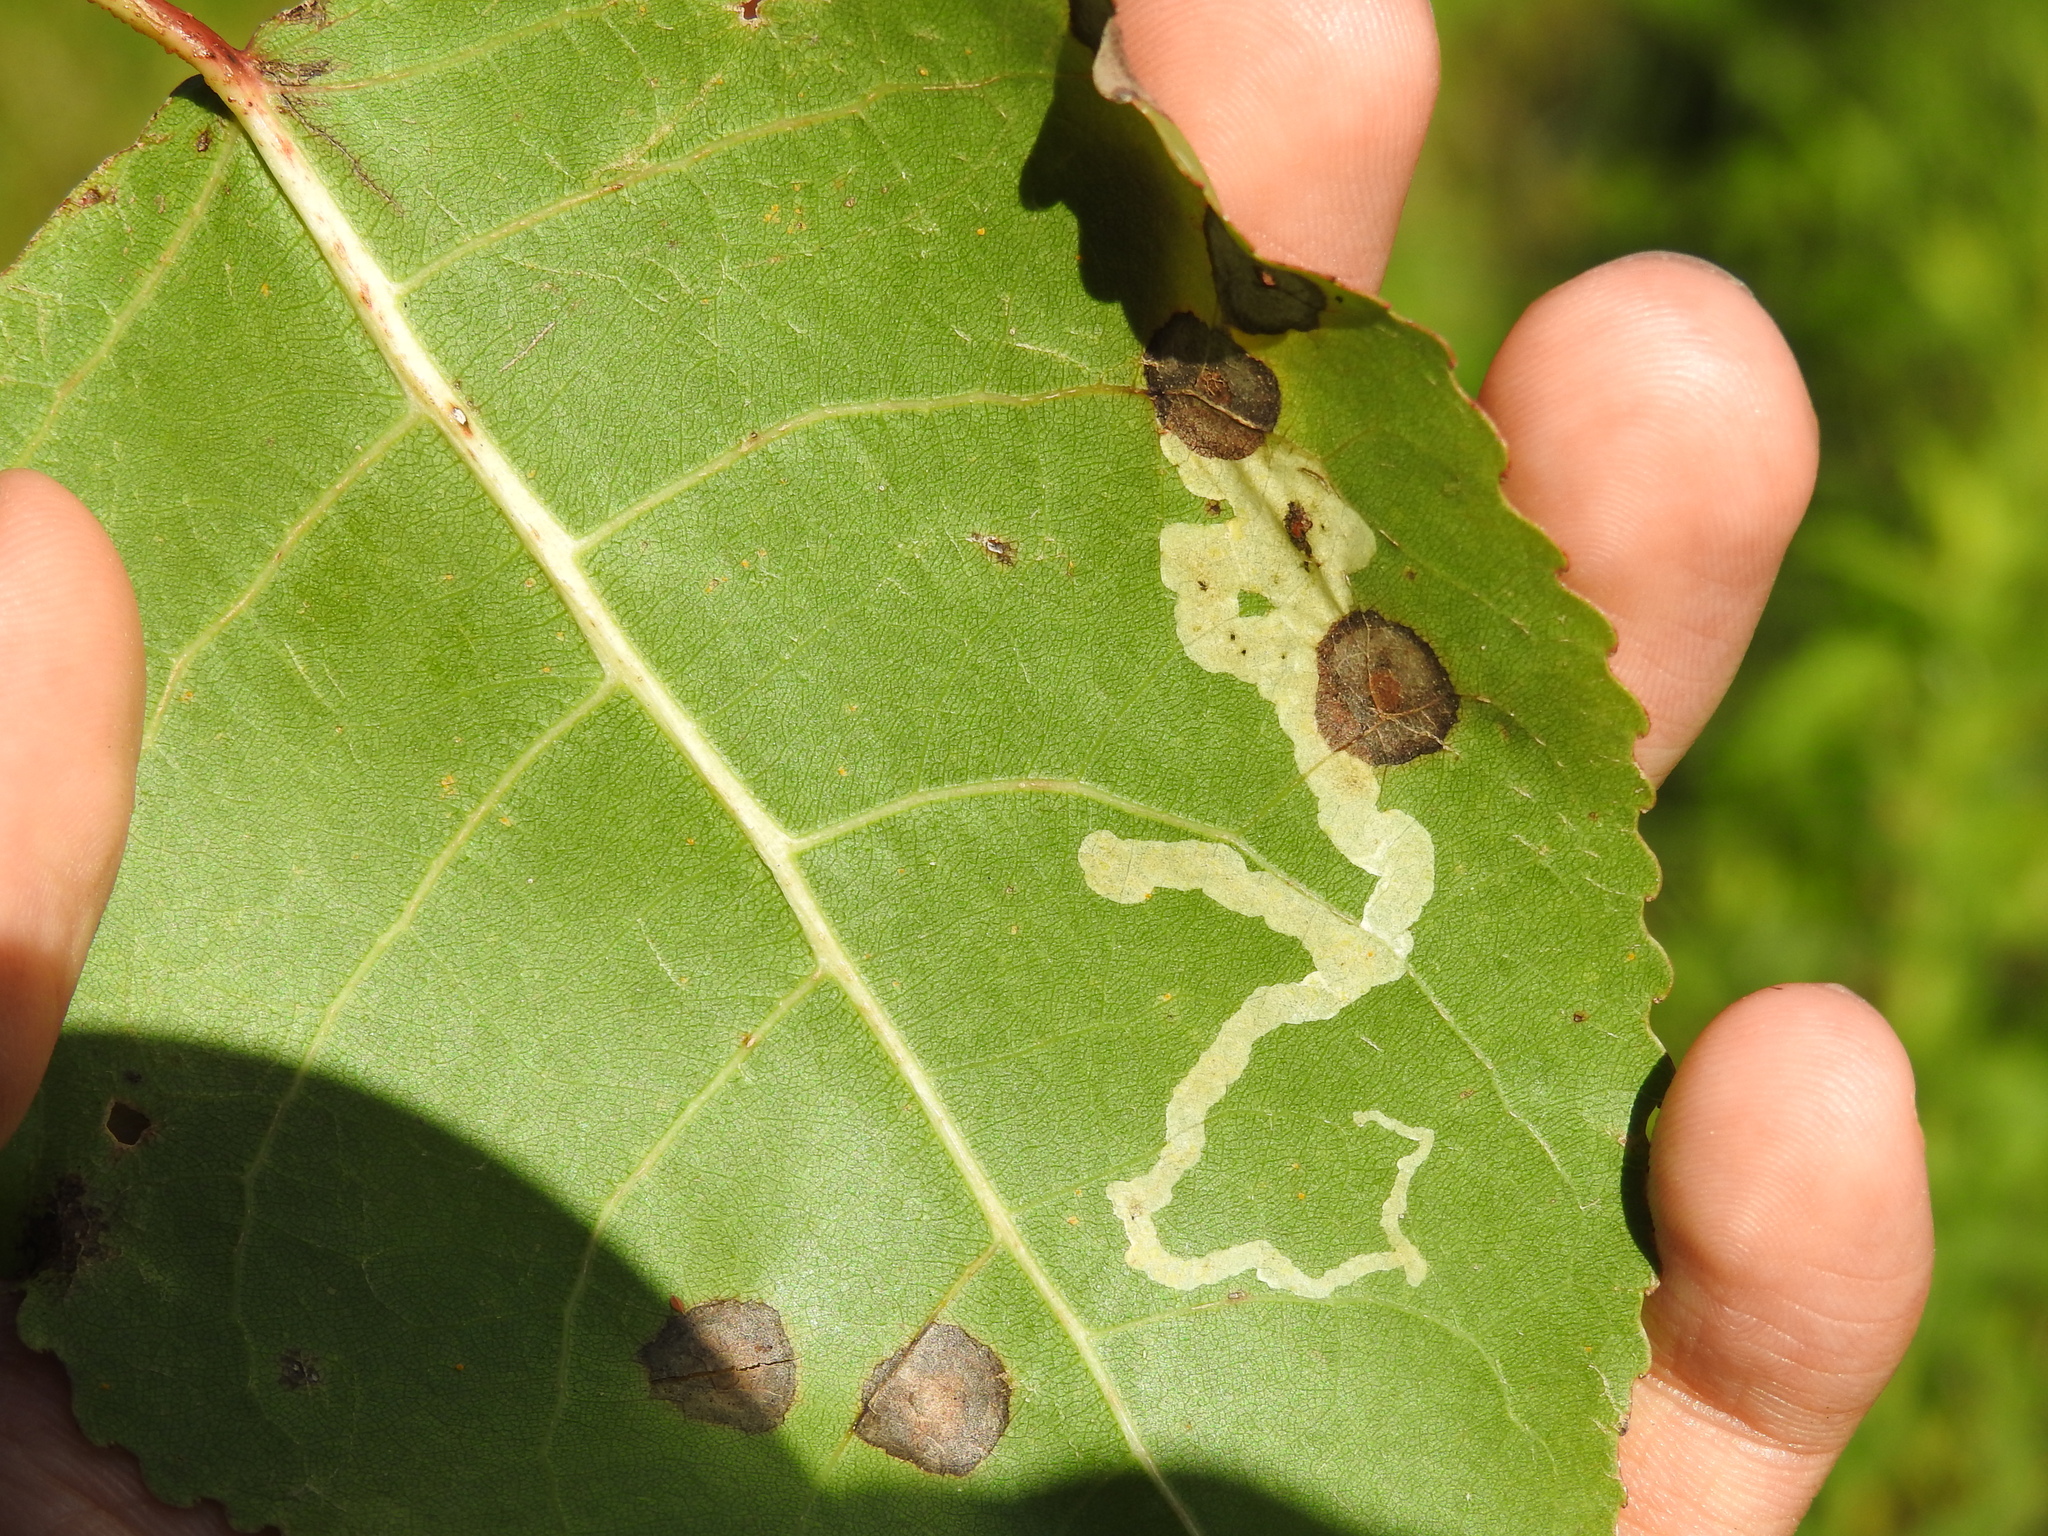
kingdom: Animalia
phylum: Arthropoda
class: Insecta
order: Diptera
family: Agromyzidae
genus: Aulagromyza
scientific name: Aulagromyza populicola
